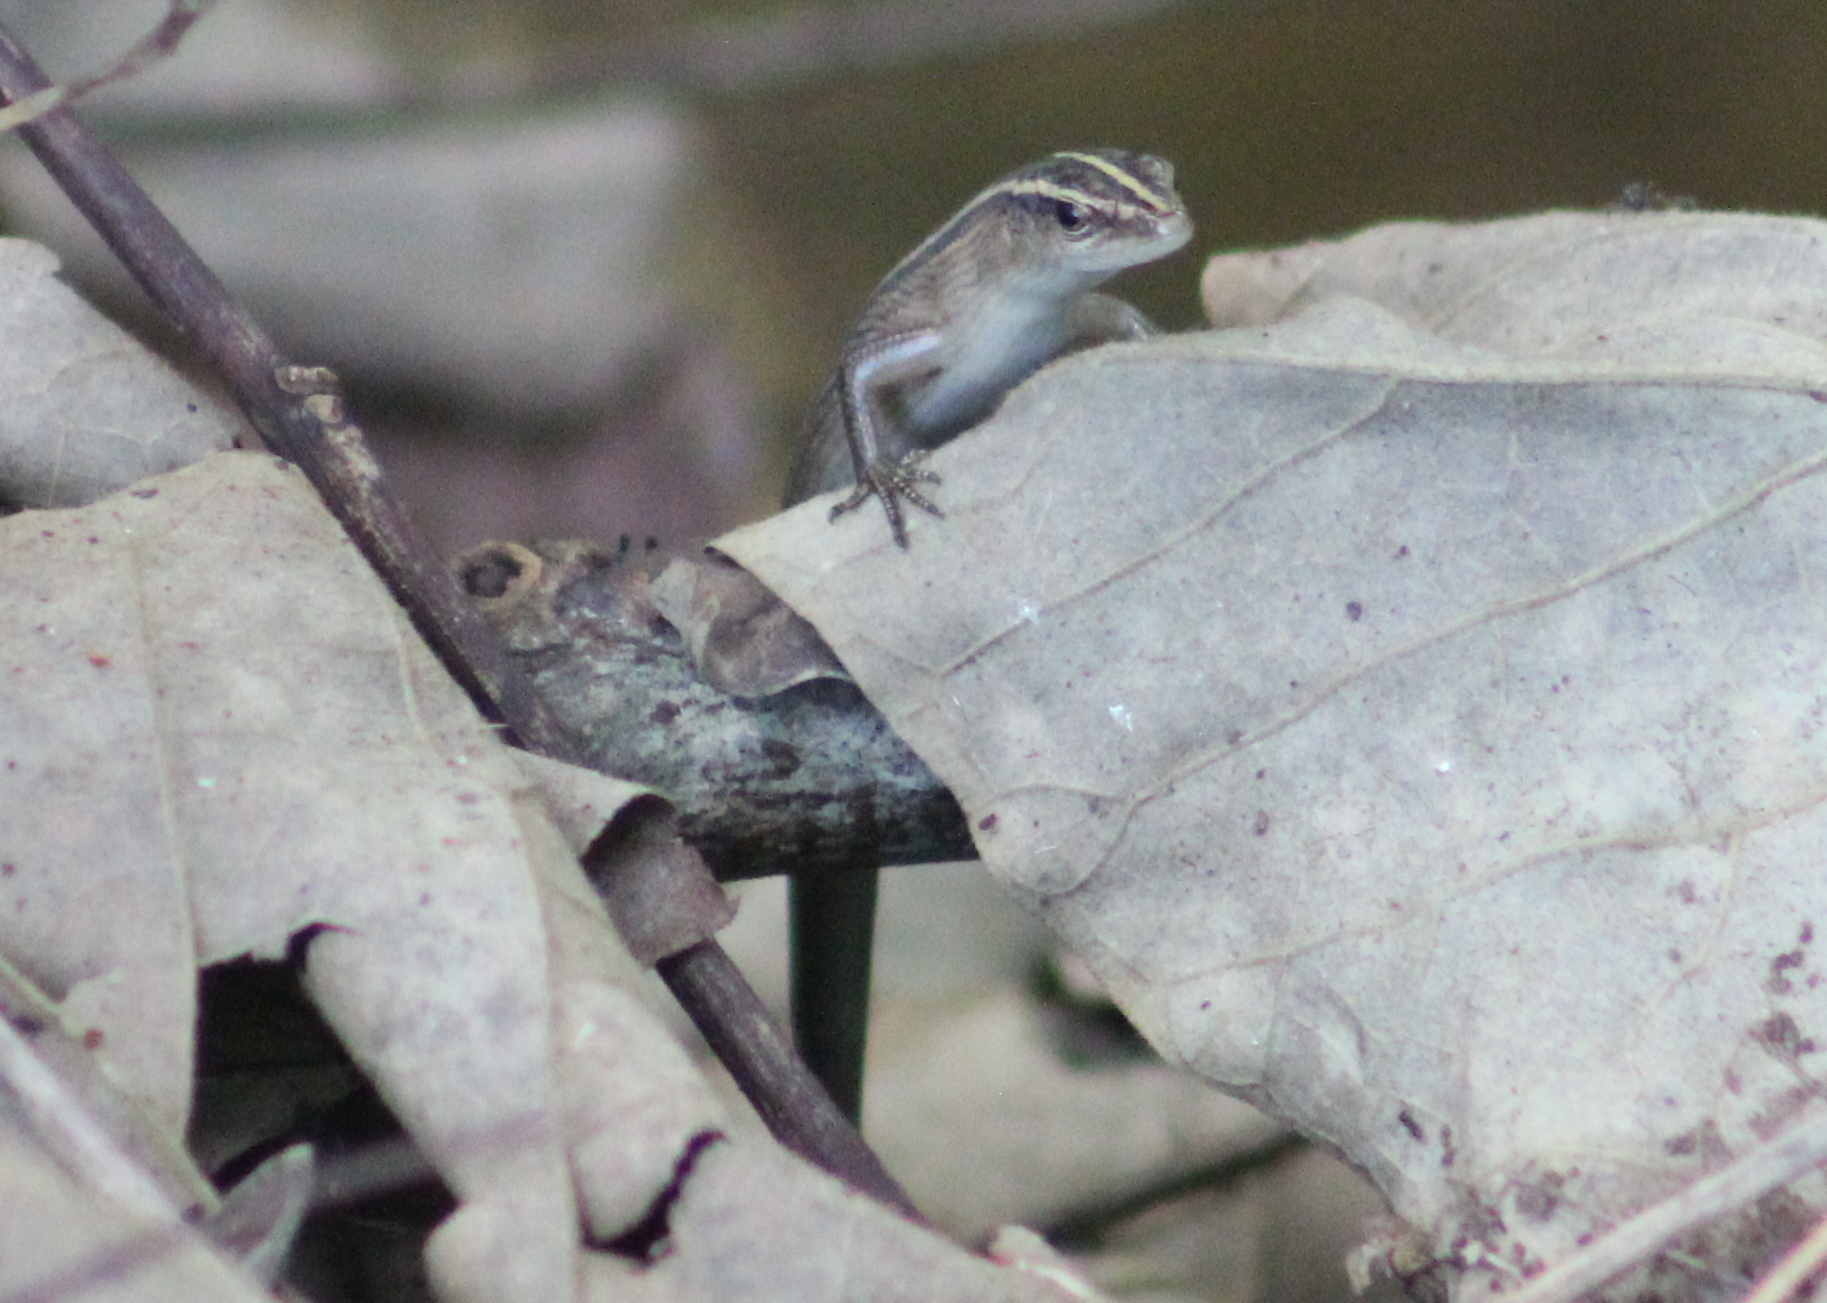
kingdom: Animalia
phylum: Chordata
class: Squamata
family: Scincidae
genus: Emoia
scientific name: Emoia cyanura
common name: Copper-tailed skink
